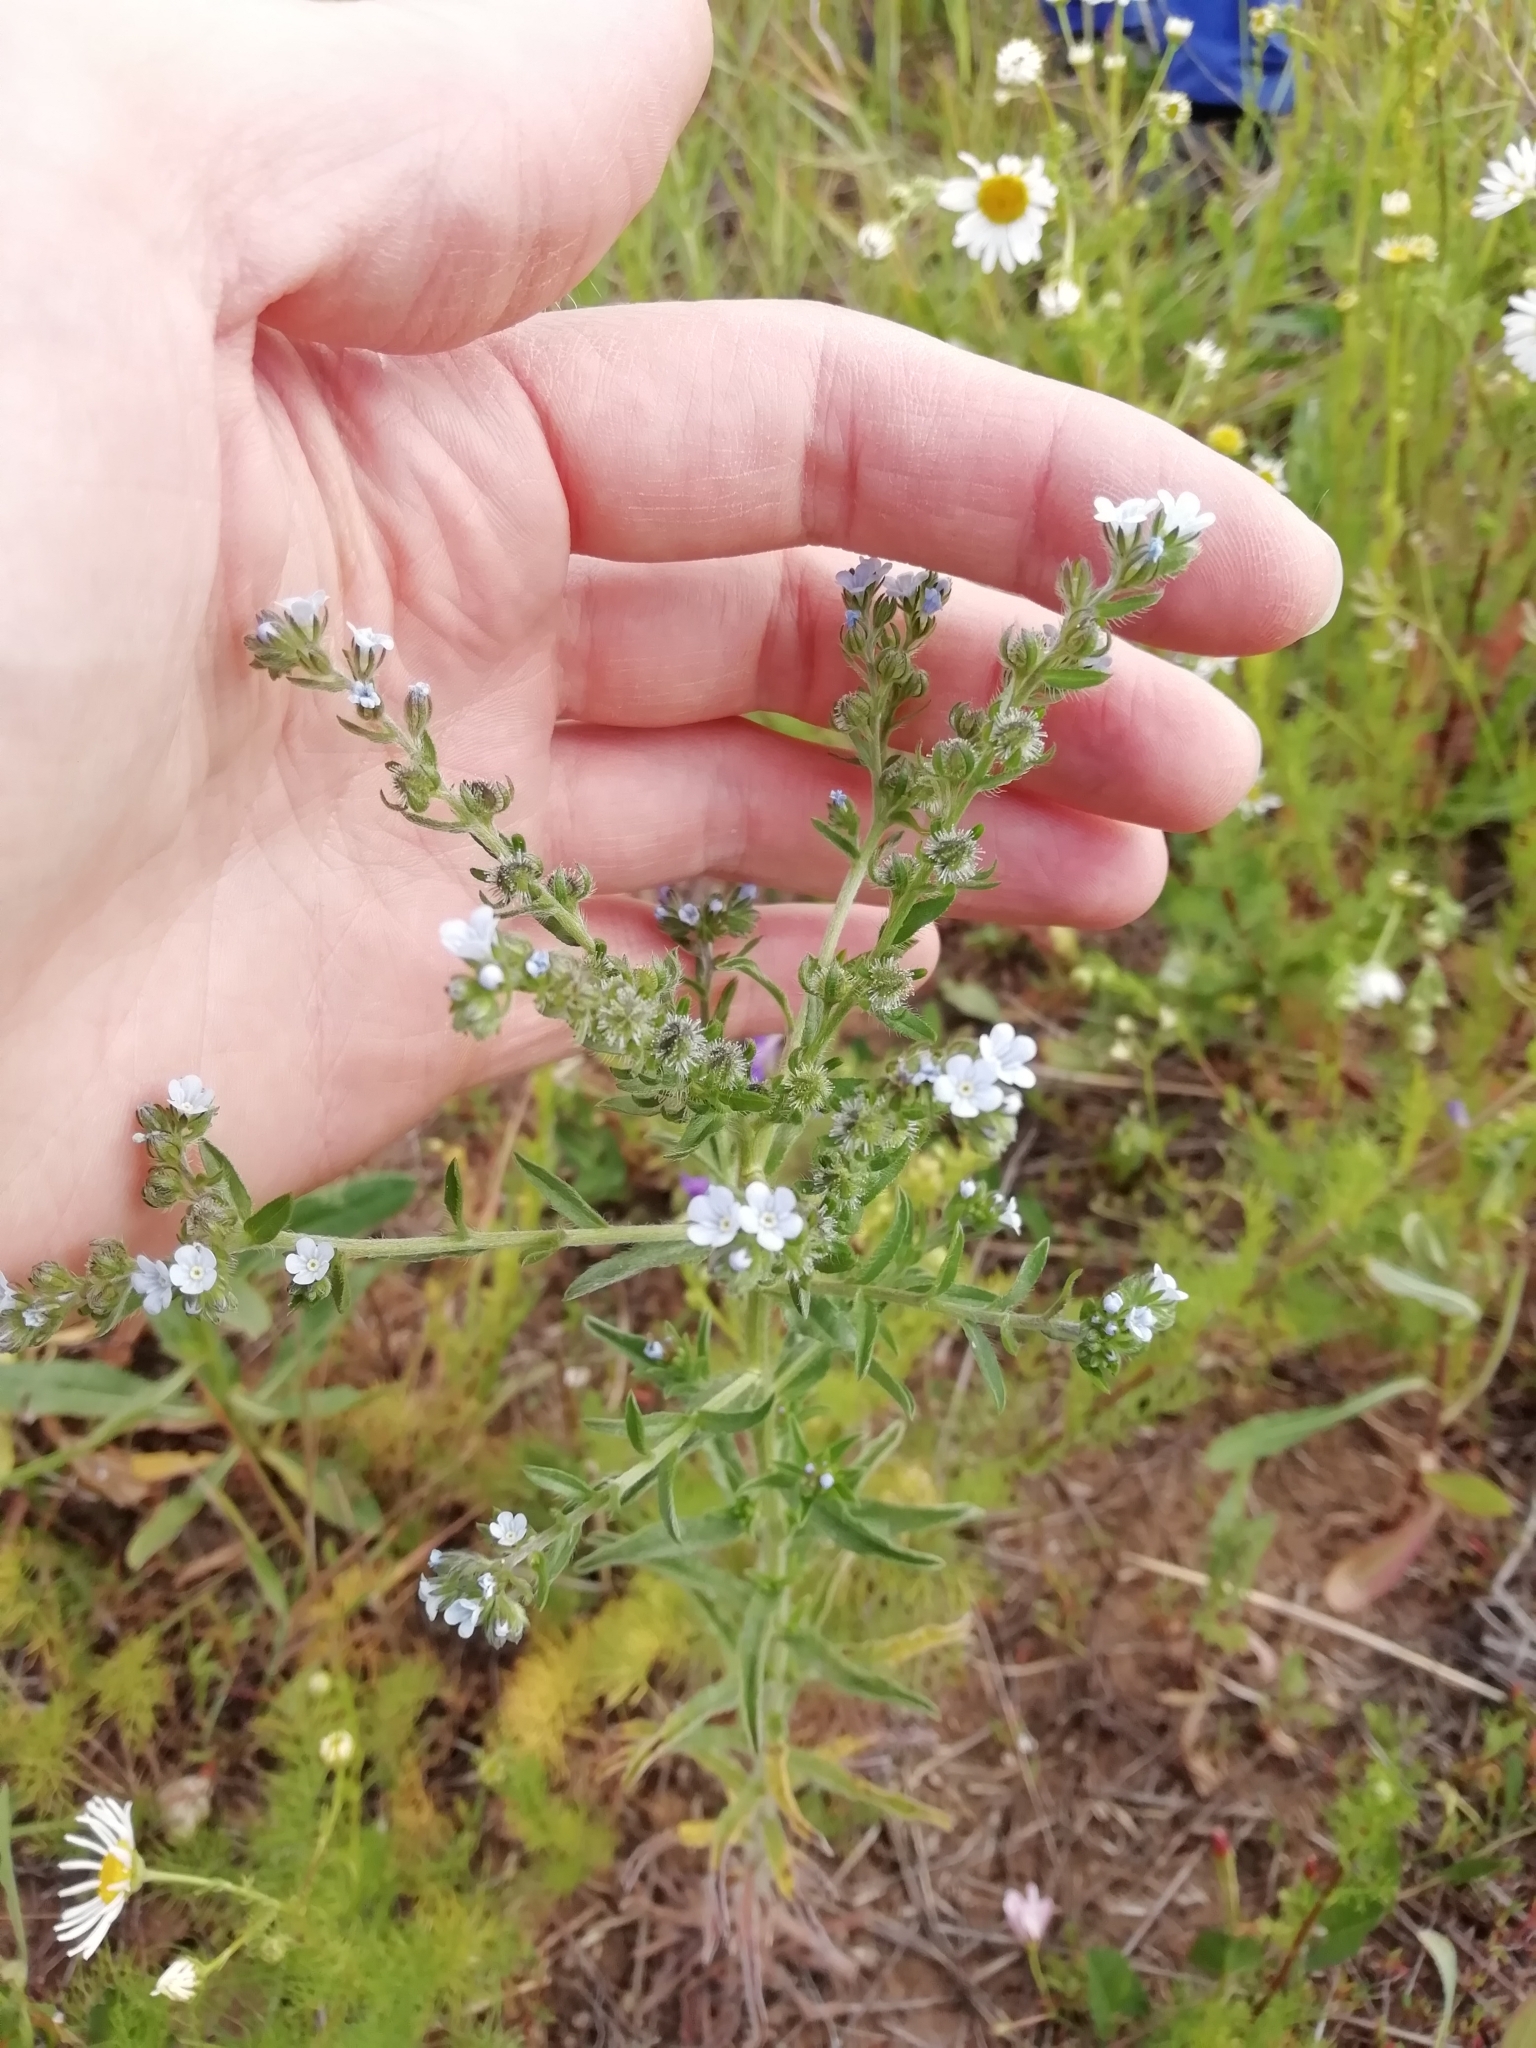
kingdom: Plantae
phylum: Tracheophyta
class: Magnoliopsida
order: Boraginales
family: Boraginaceae
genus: Lappula
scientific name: Lappula squarrosa
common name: European stickseed
